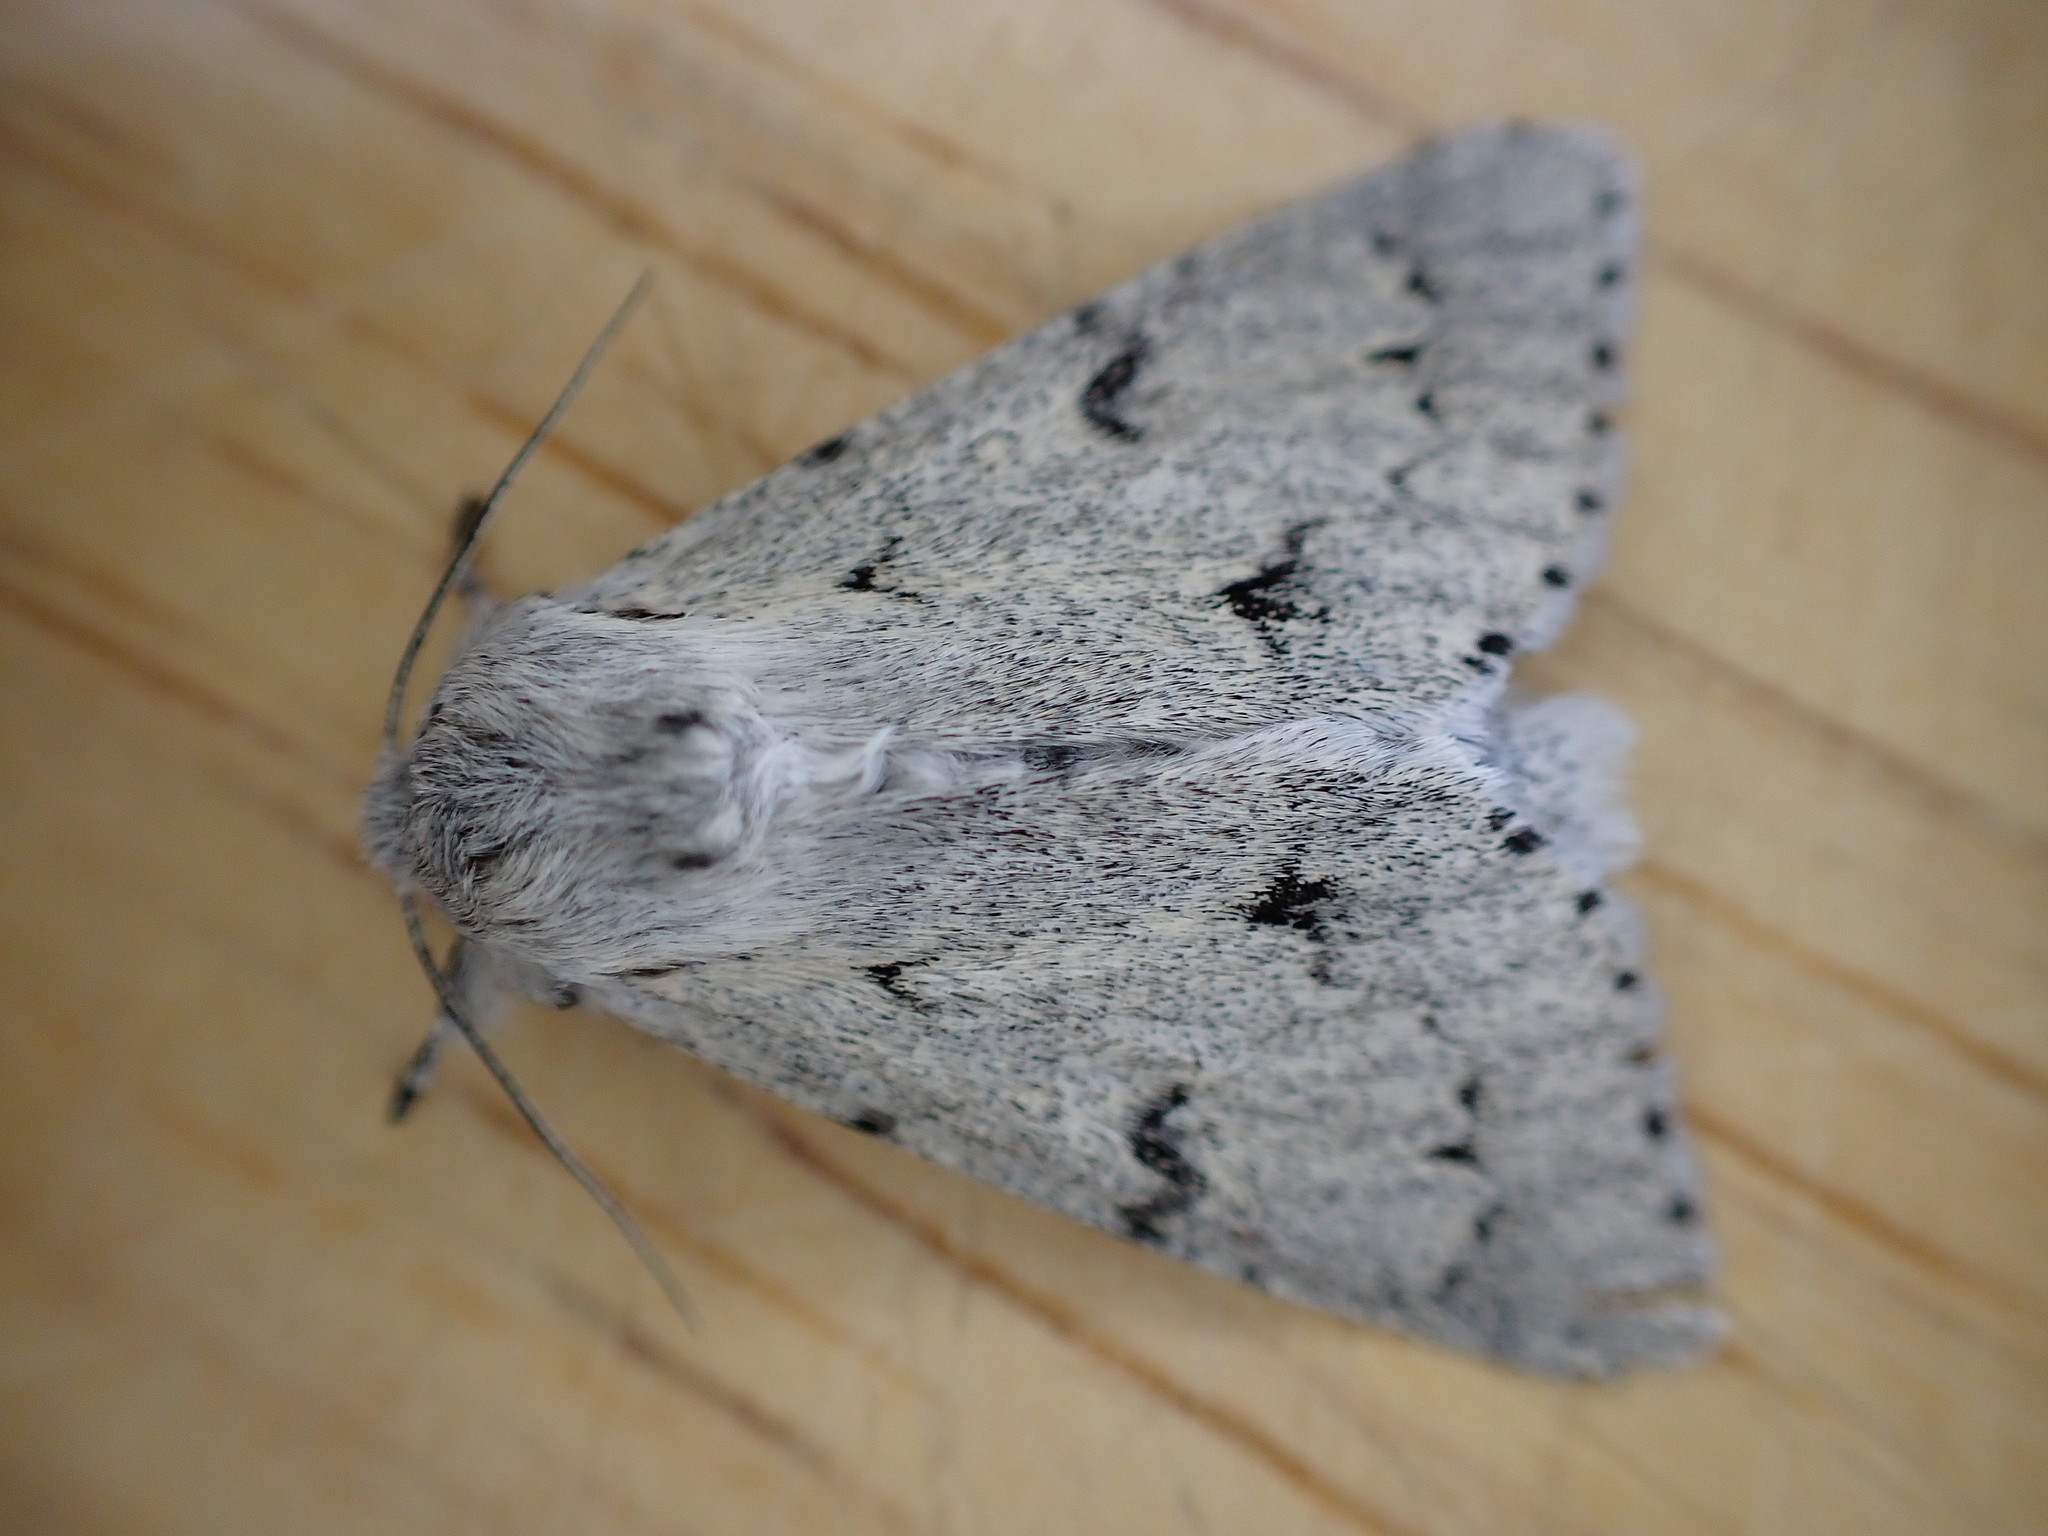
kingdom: Animalia
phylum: Arthropoda
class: Insecta
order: Lepidoptera
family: Noctuidae
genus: Acronicta
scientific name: Acronicta leporina
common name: Miller
